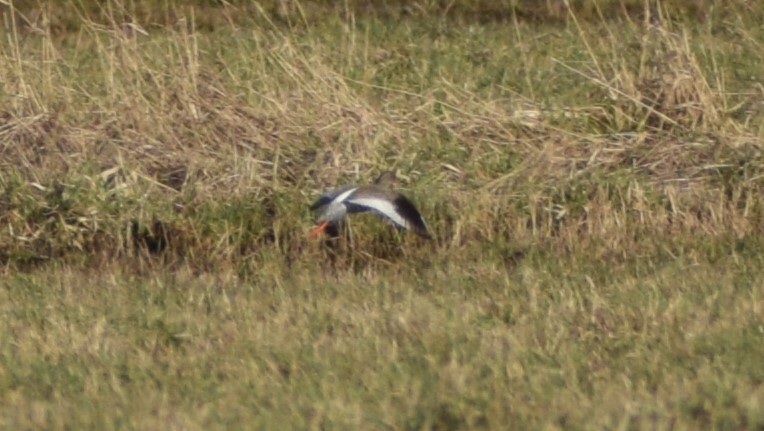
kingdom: Animalia
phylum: Chordata
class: Aves
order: Charadriiformes
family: Scolopacidae
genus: Tringa
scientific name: Tringa totanus
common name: Common redshank
